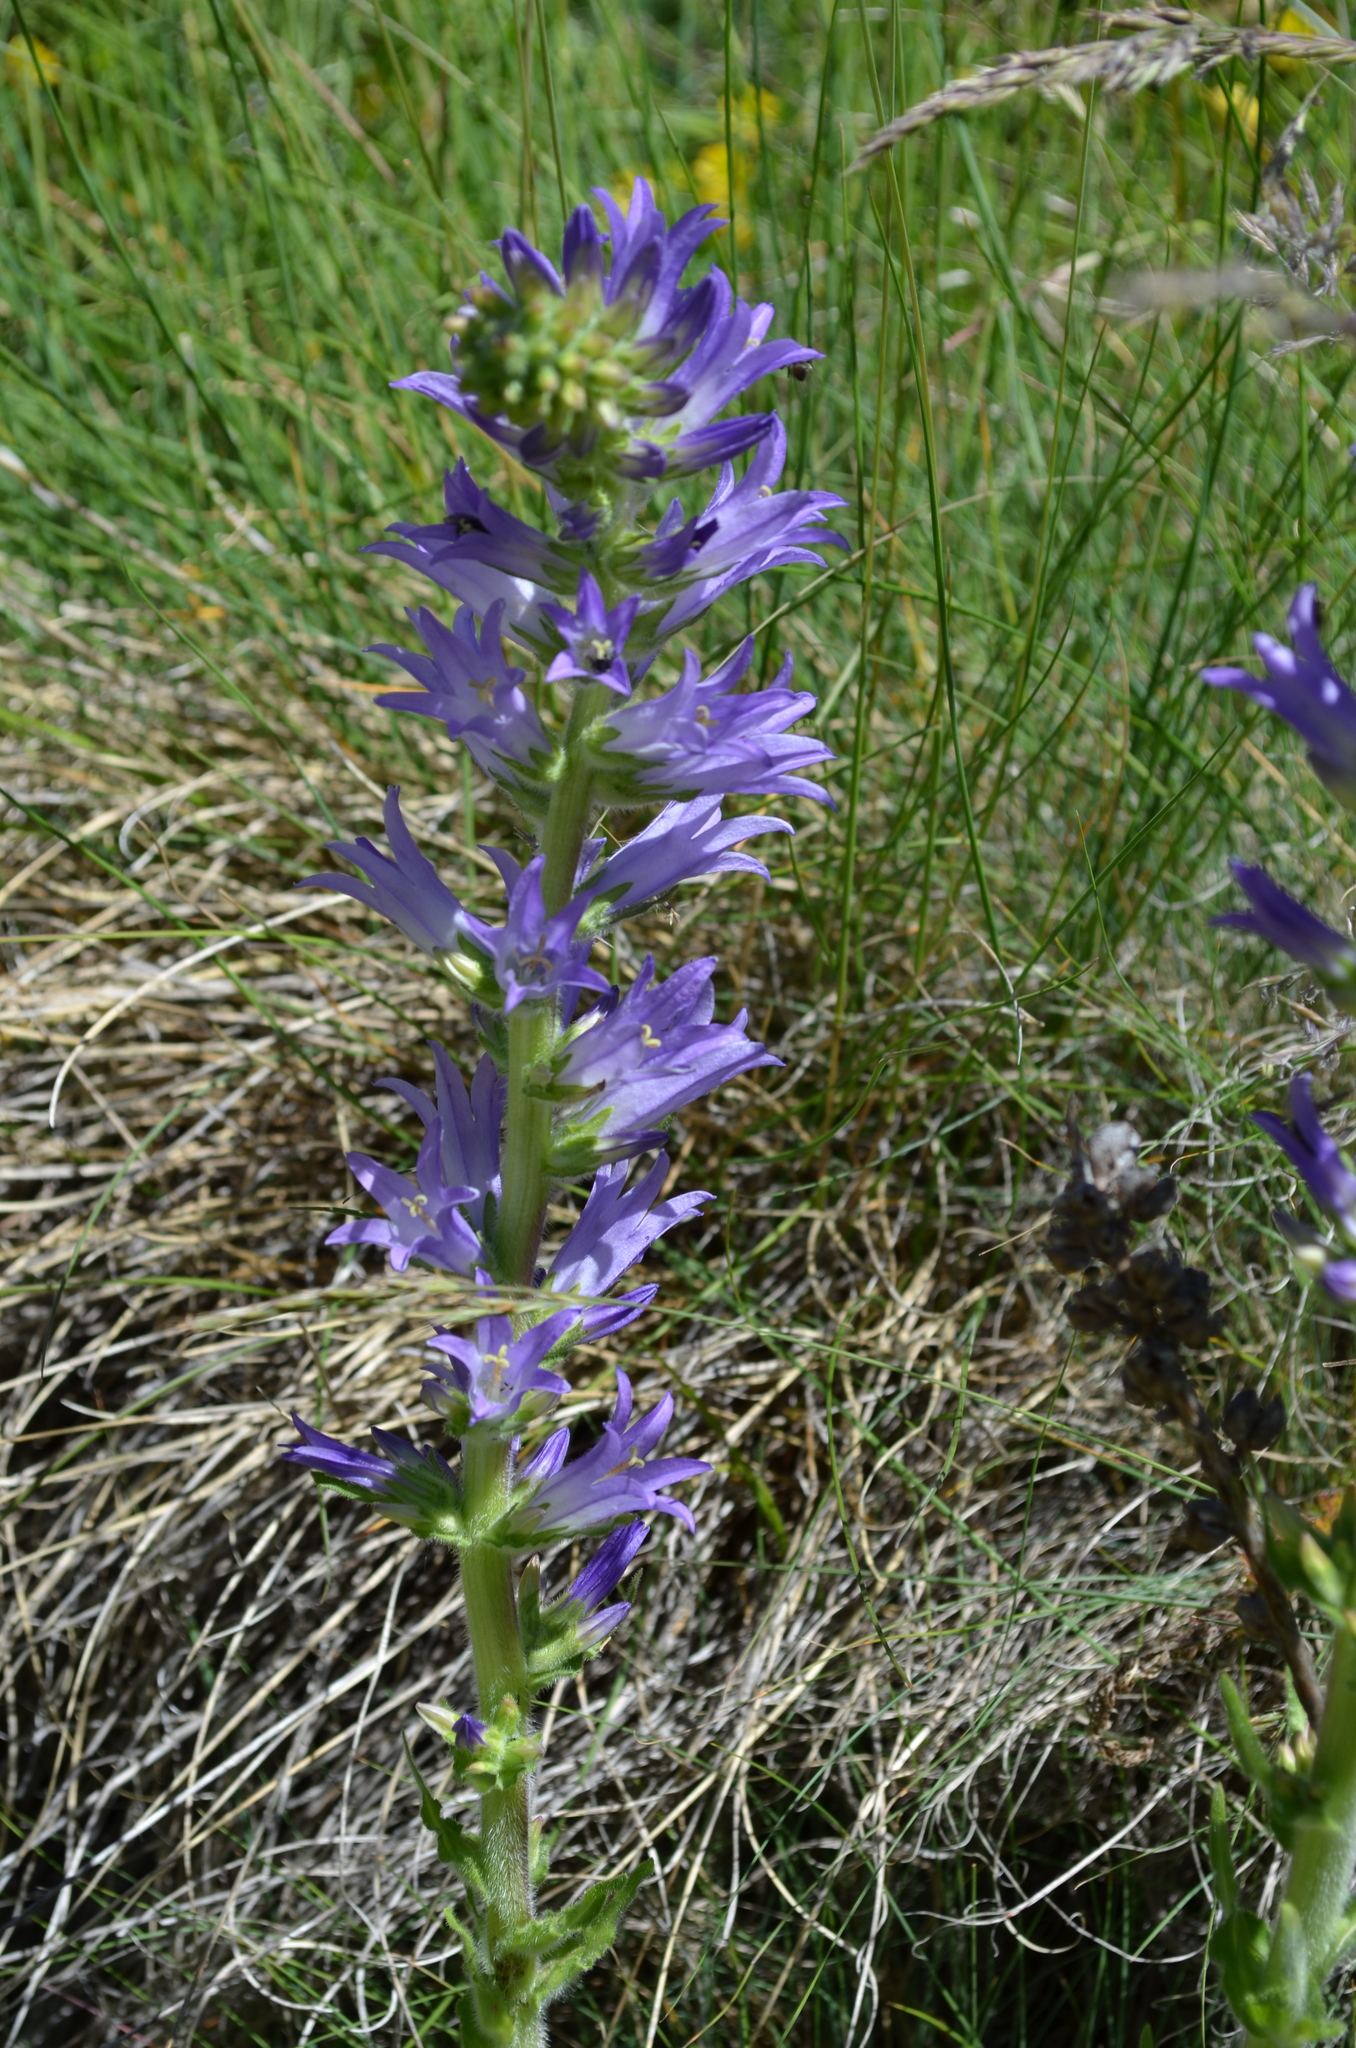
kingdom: Plantae
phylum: Tracheophyta
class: Magnoliopsida
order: Asterales
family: Campanulaceae
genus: Campanula
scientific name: Campanula spicata
